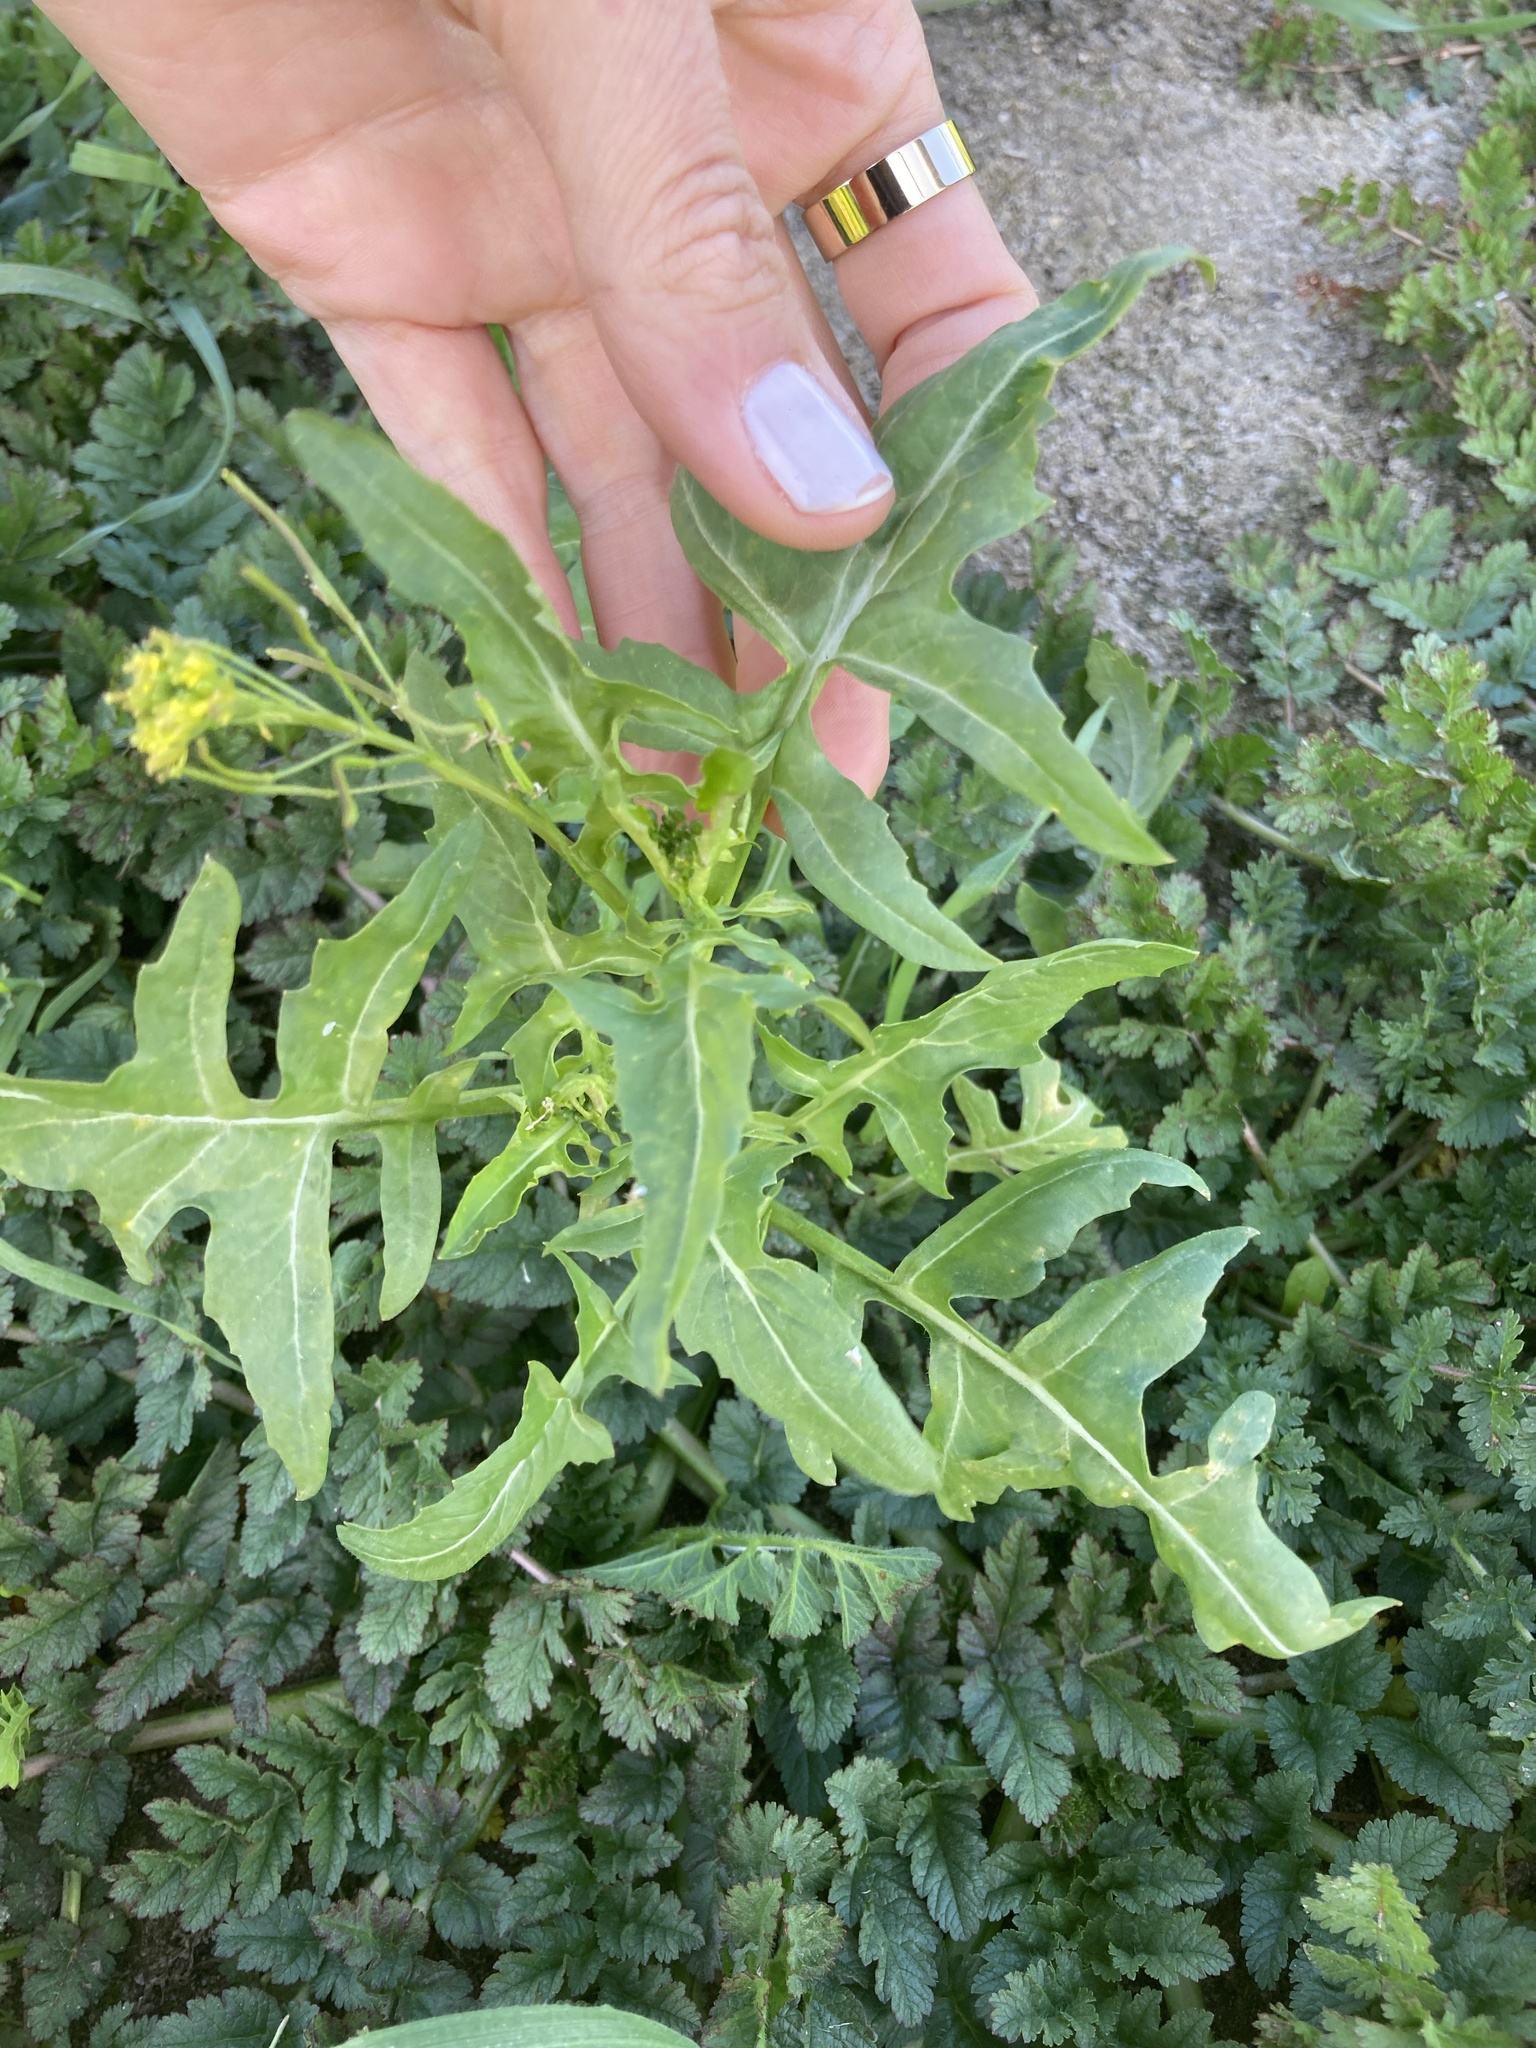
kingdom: Plantae
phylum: Tracheophyta
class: Magnoliopsida
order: Brassicales
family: Brassicaceae
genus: Sisymbrium
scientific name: Sisymbrium irio
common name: London rocket
